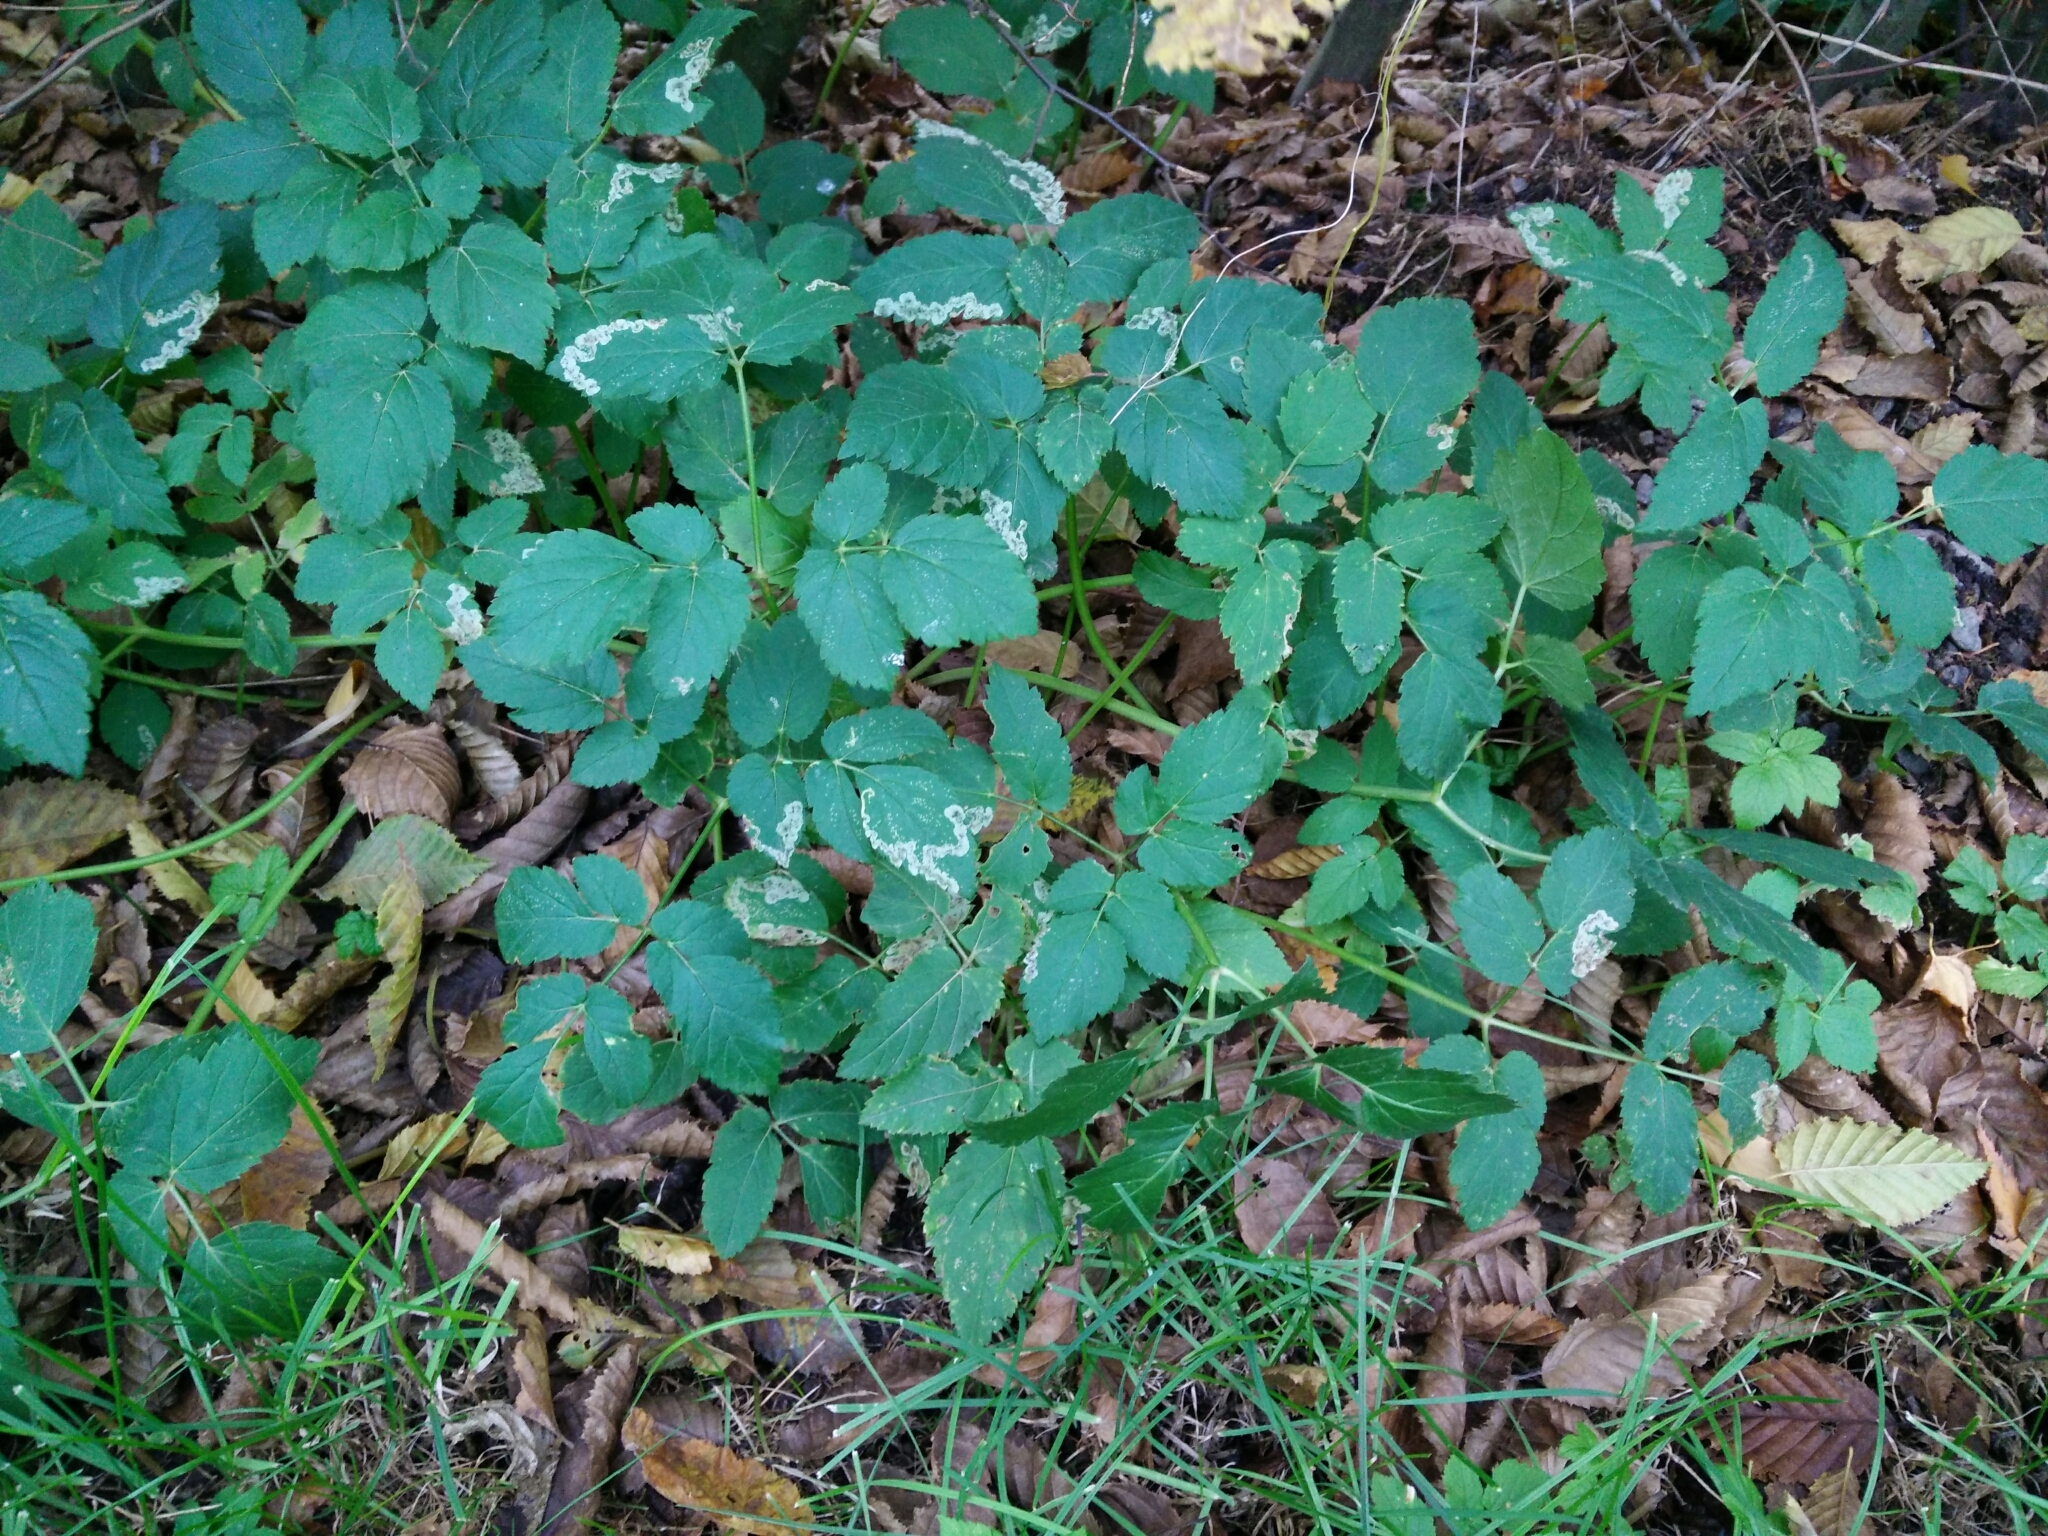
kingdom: Plantae
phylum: Tracheophyta
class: Magnoliopsida
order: Apiales
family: Apiaceae
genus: Aegopodium
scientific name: Aegopodium podagraria
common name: Ground-elder
